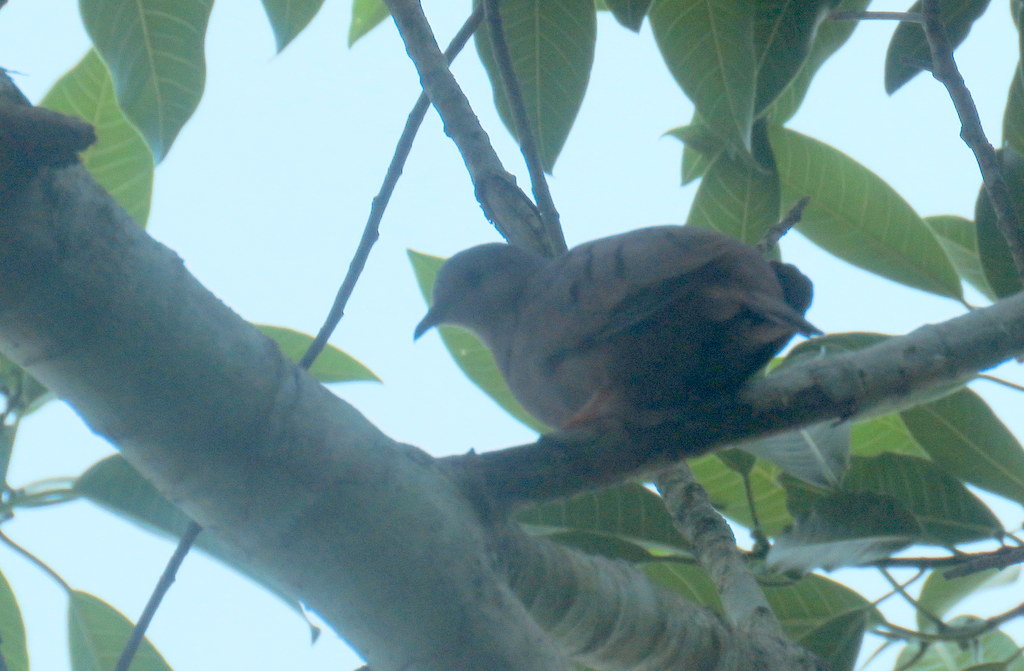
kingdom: Animalia
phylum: Chordata
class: Aves
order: Columbiformes
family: Columbidae
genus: Columbina
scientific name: Columbina talpacoti
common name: Ruddy ground dove
